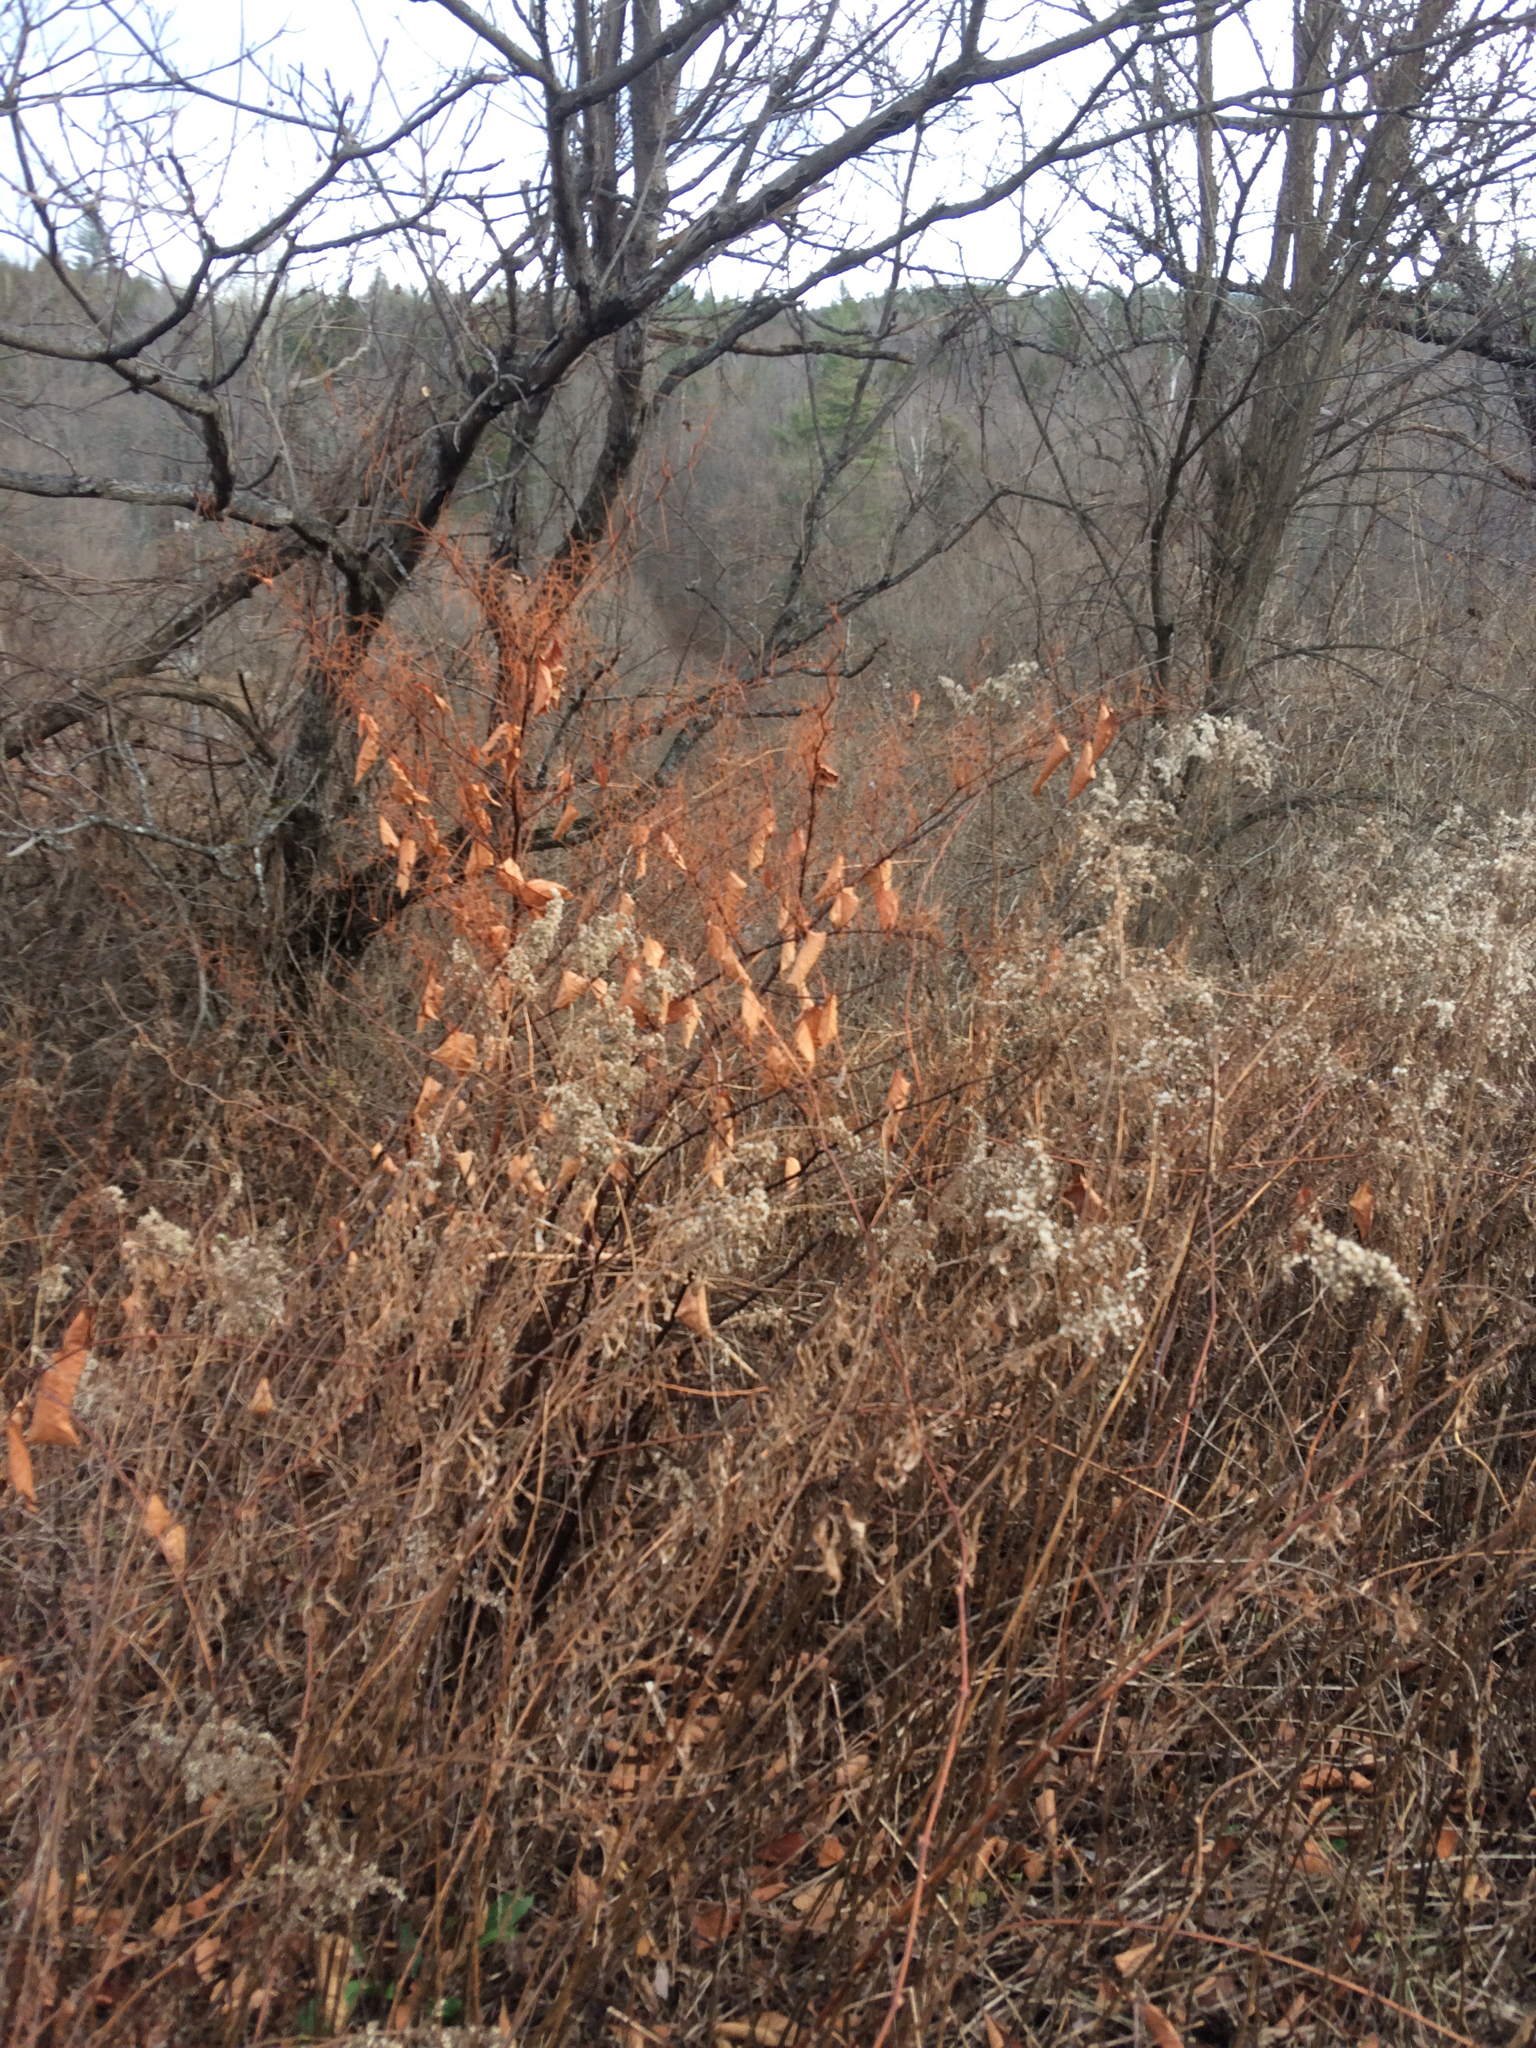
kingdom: Plantae
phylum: Tracheophyta
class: Magnoliopsida
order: Caryophyllales
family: Polygonaceae
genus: Reynoutria
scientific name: Reynoutria japonica
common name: Japanese knotweed
